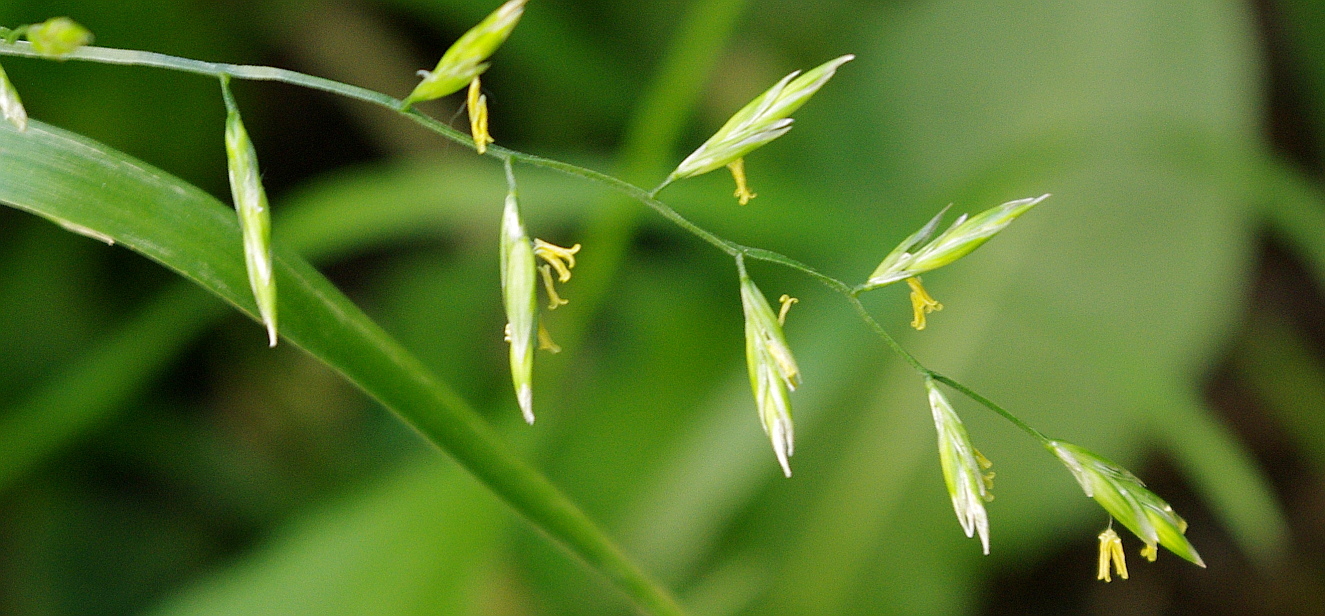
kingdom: Plantae
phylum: Tracheophyta
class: Liliopsida
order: Poales
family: Poaceae
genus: Lolium
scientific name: Lolium pratense
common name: Dover grass
